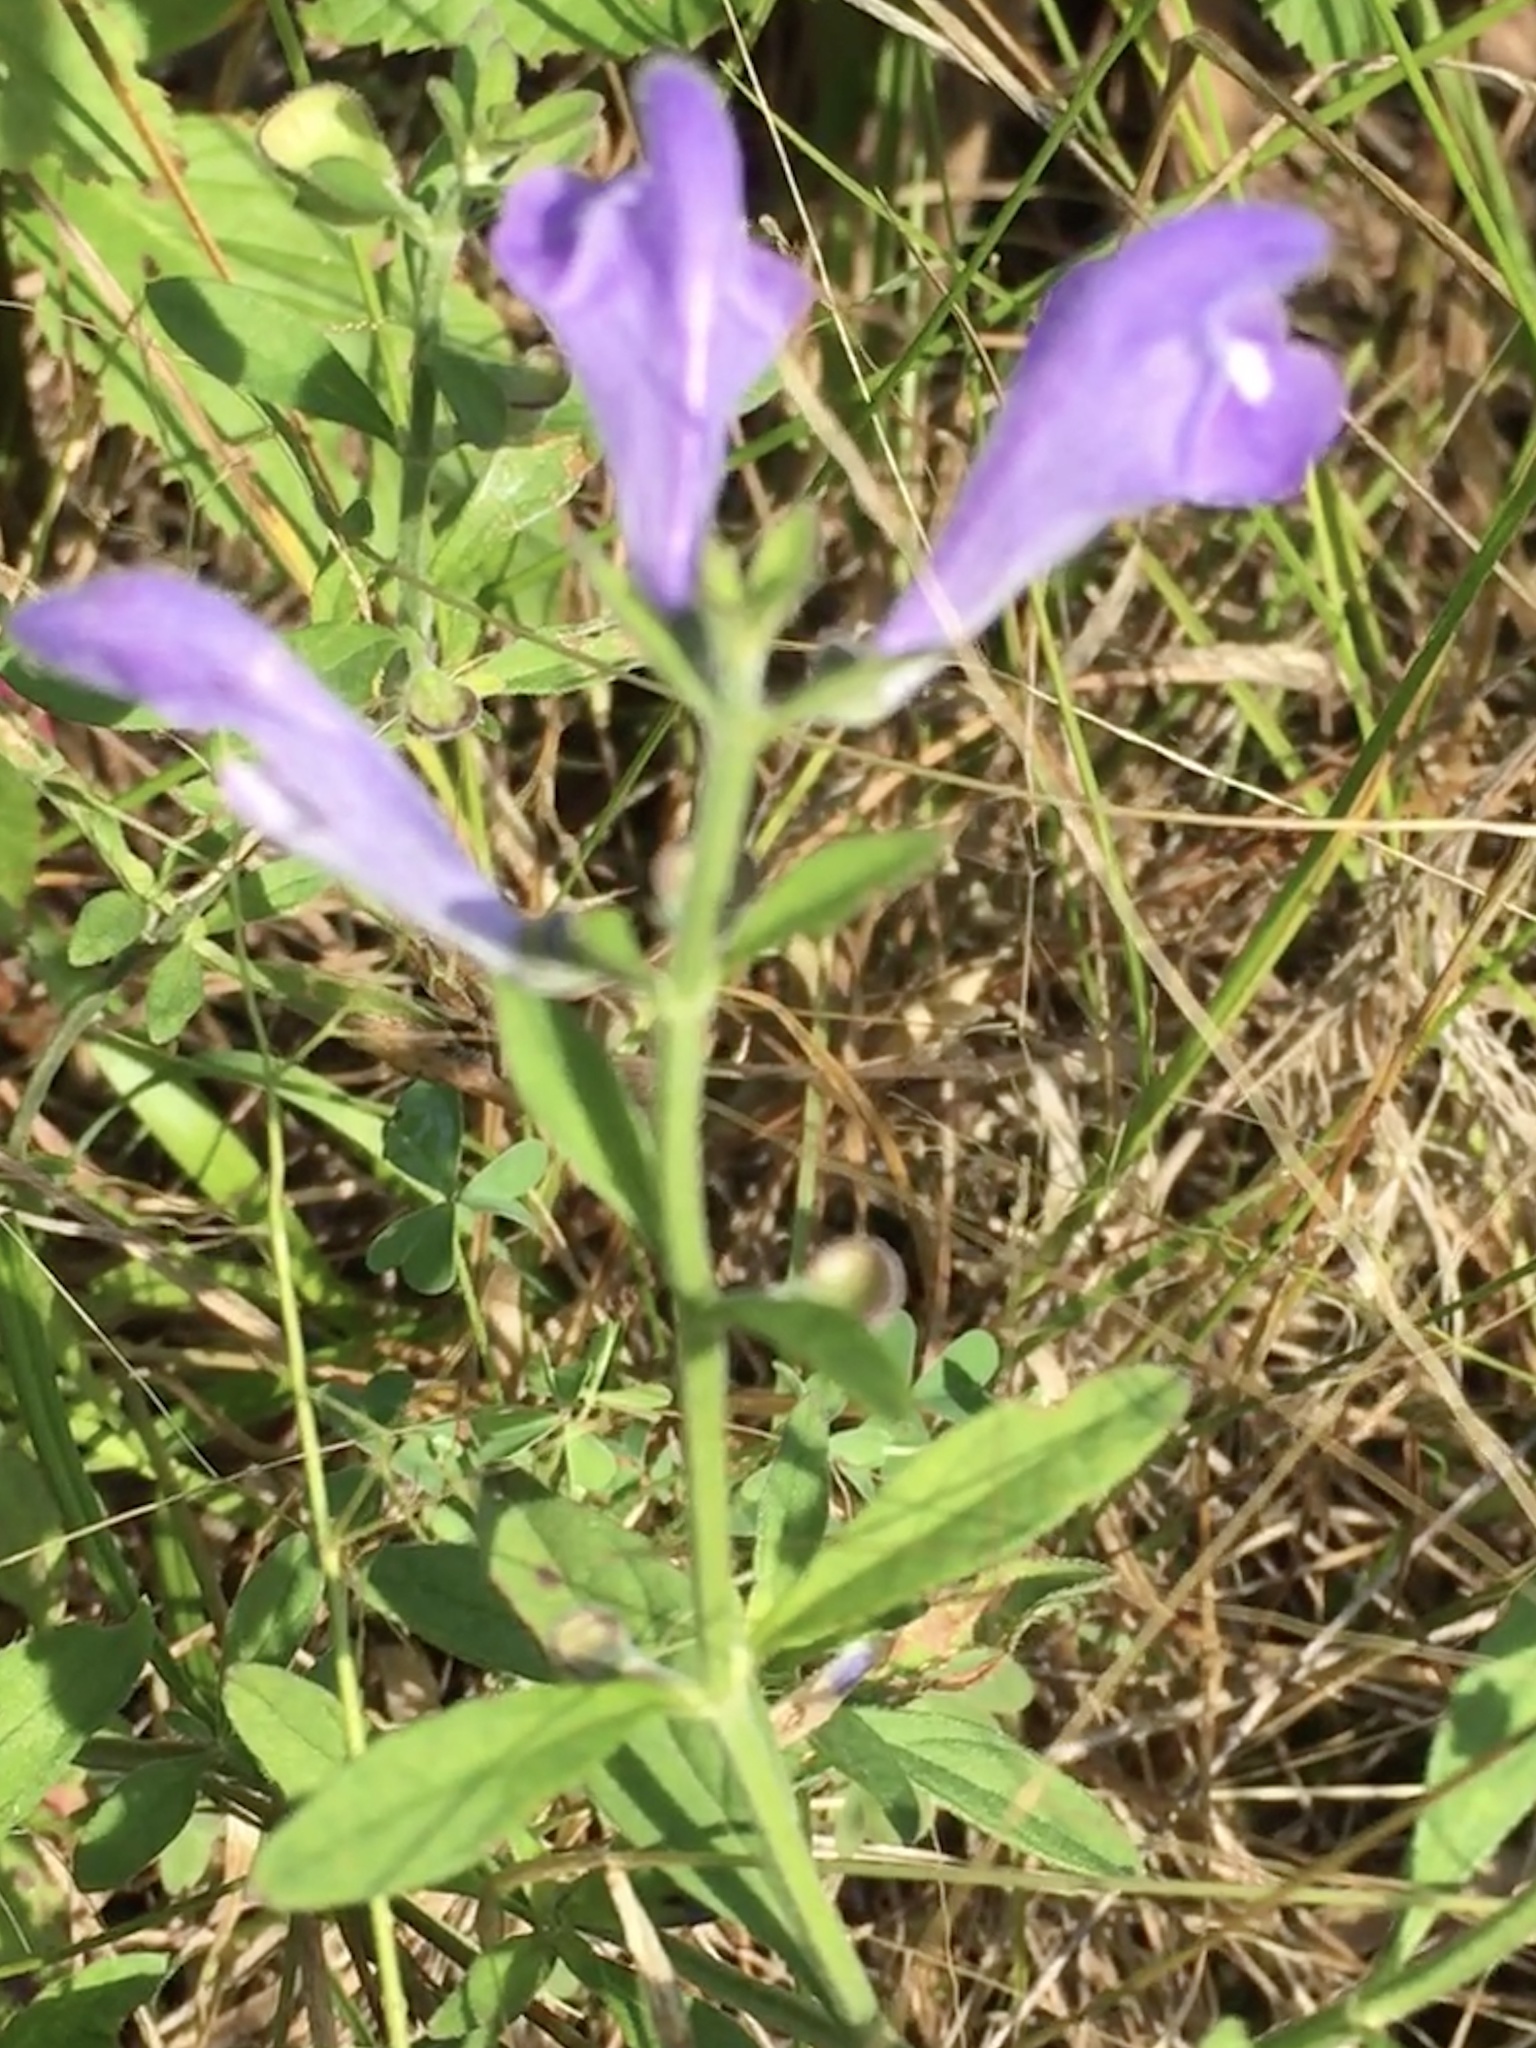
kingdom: Plantae
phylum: Tracheophyta
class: Magnoliopsida
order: Lamiales
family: Lamiaceae
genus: Scutellaria
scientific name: Scutellaria integrifolia
